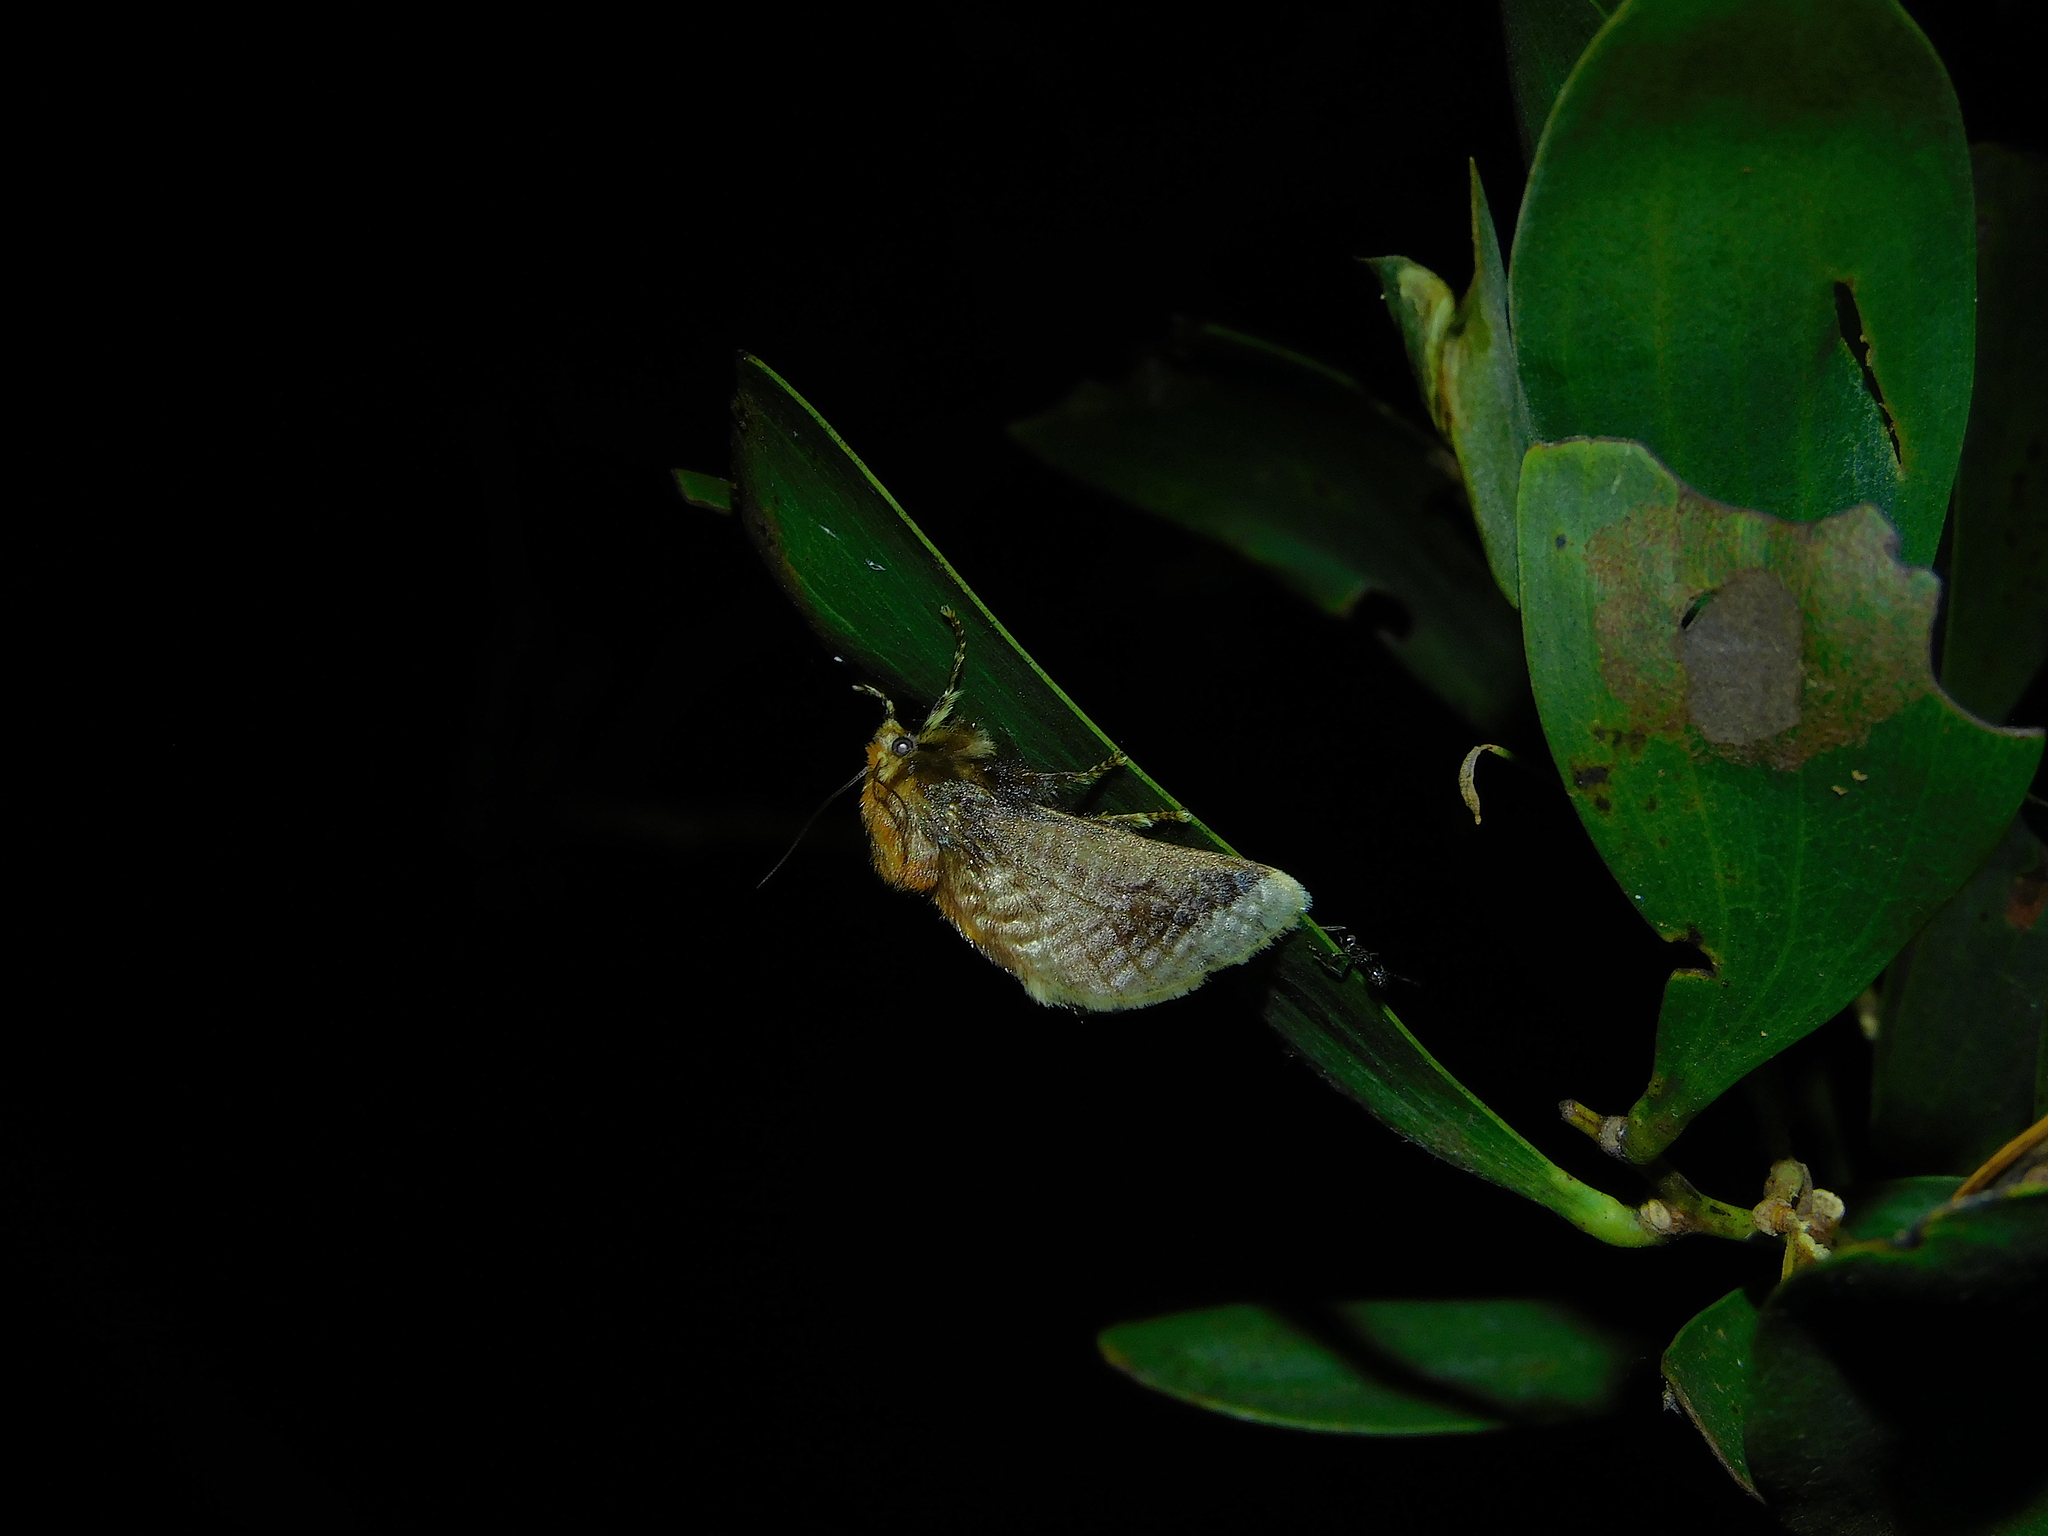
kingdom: Animalia
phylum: Arthropoda
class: Insecta
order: Lepidoptera
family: Limacodidae
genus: Doratifera
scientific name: Doratifera oxleyi
